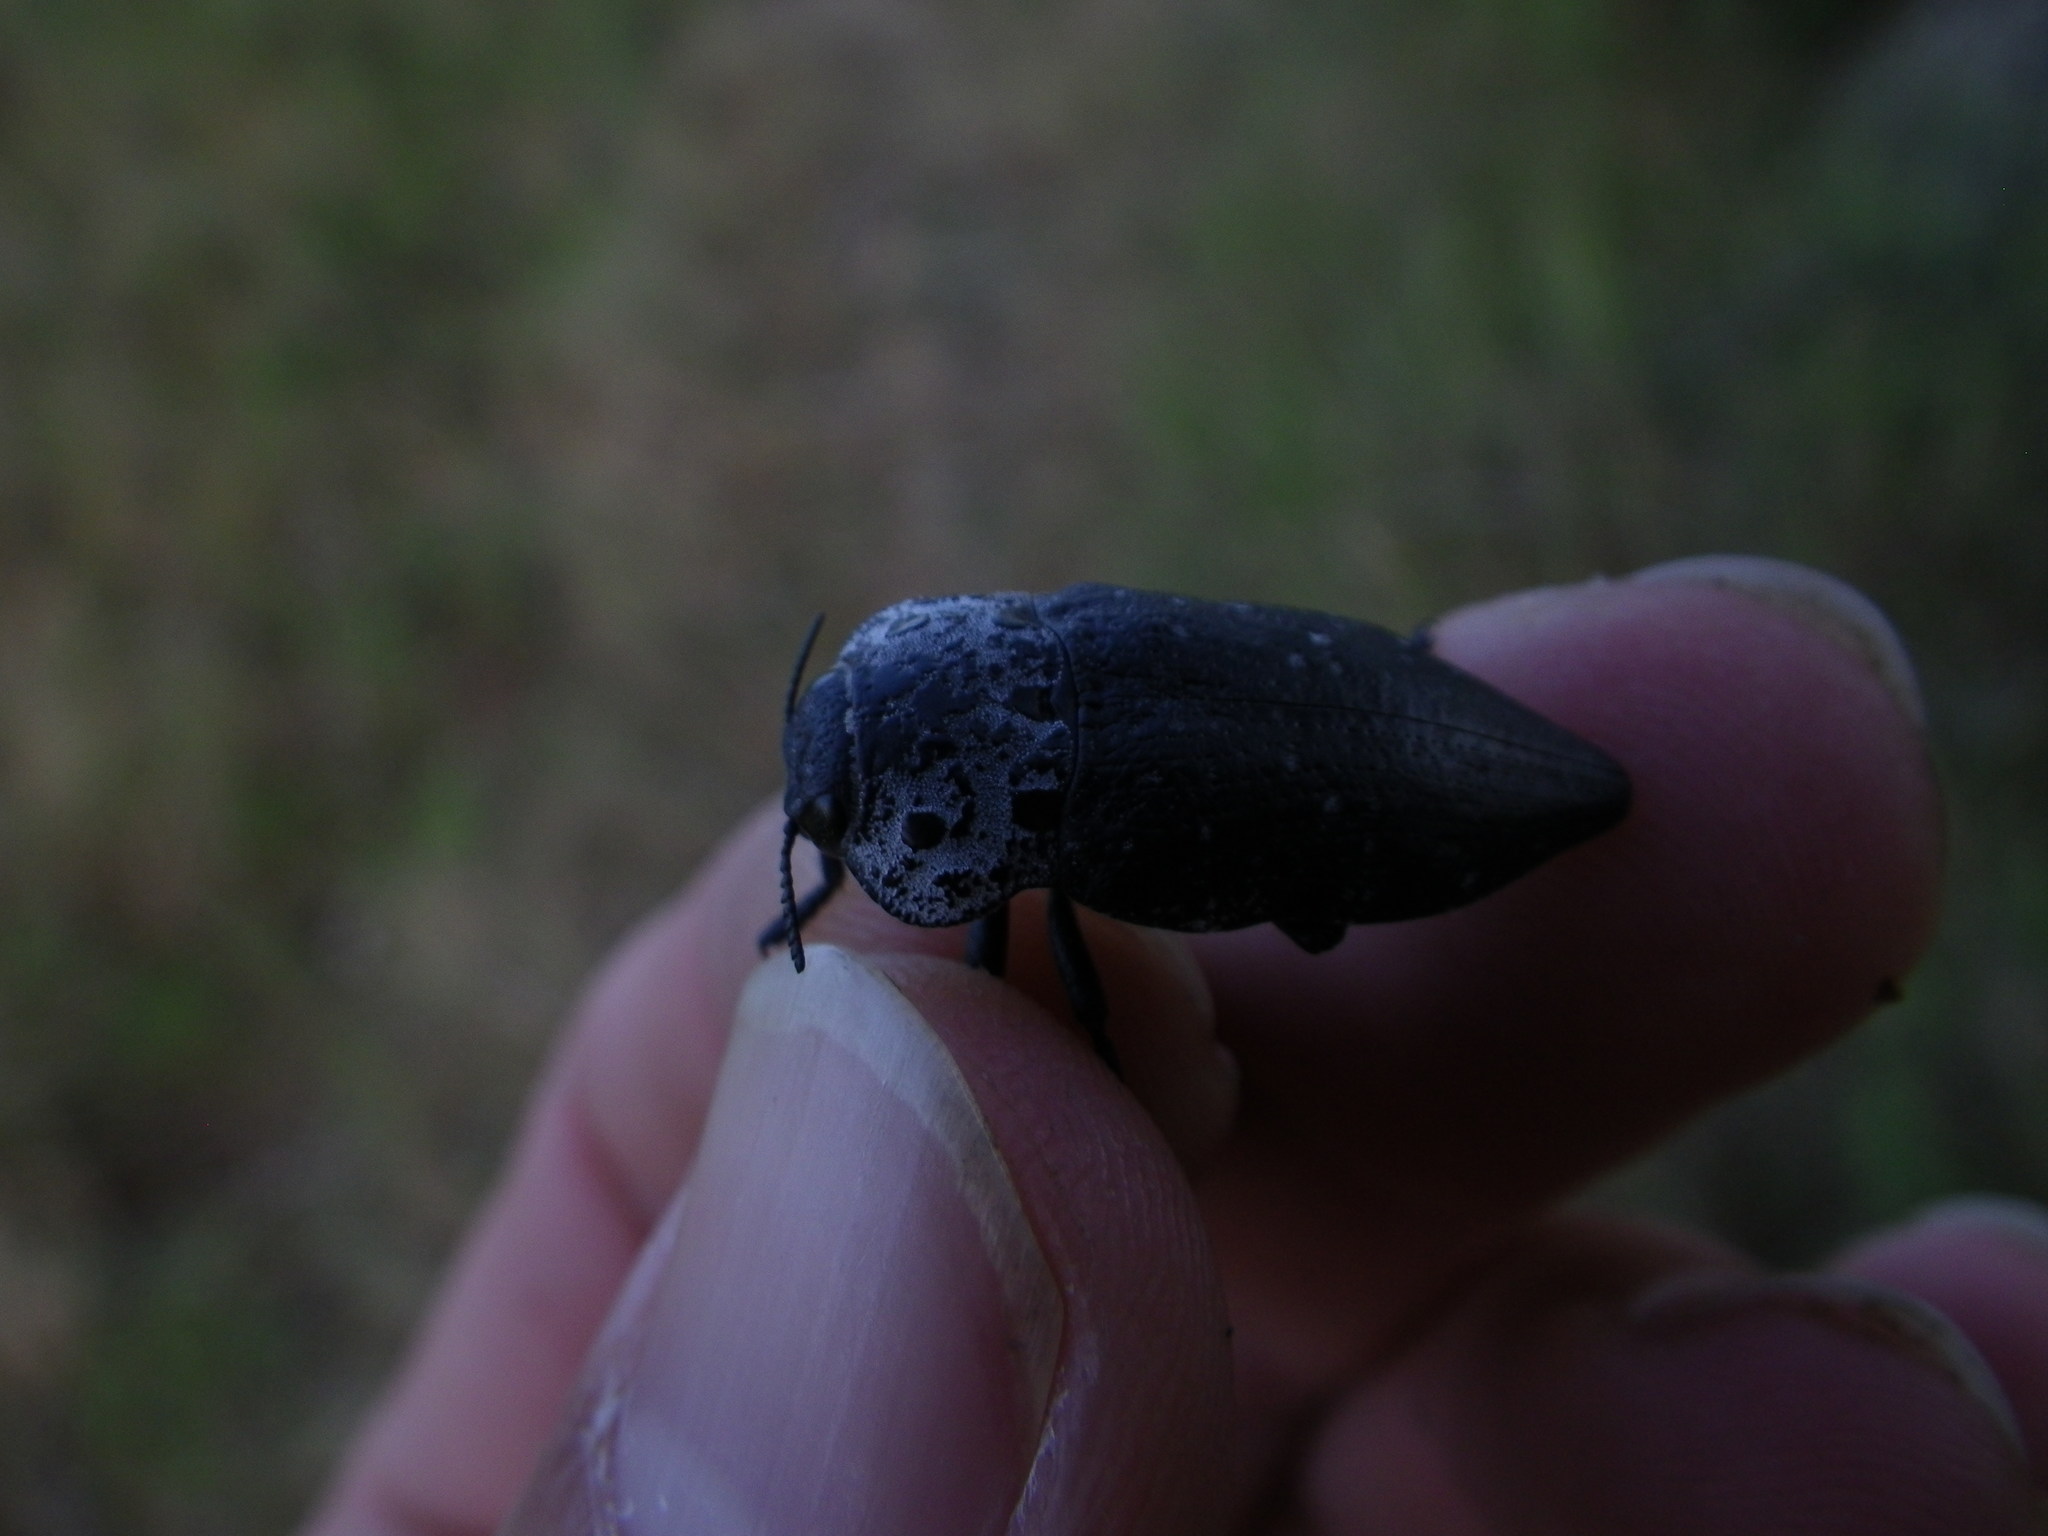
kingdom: Animalia
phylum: Arthropoda
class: Insecta
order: Coleoptera
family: Buprestidae
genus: Capnodis
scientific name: Capnodis tenebrionis
